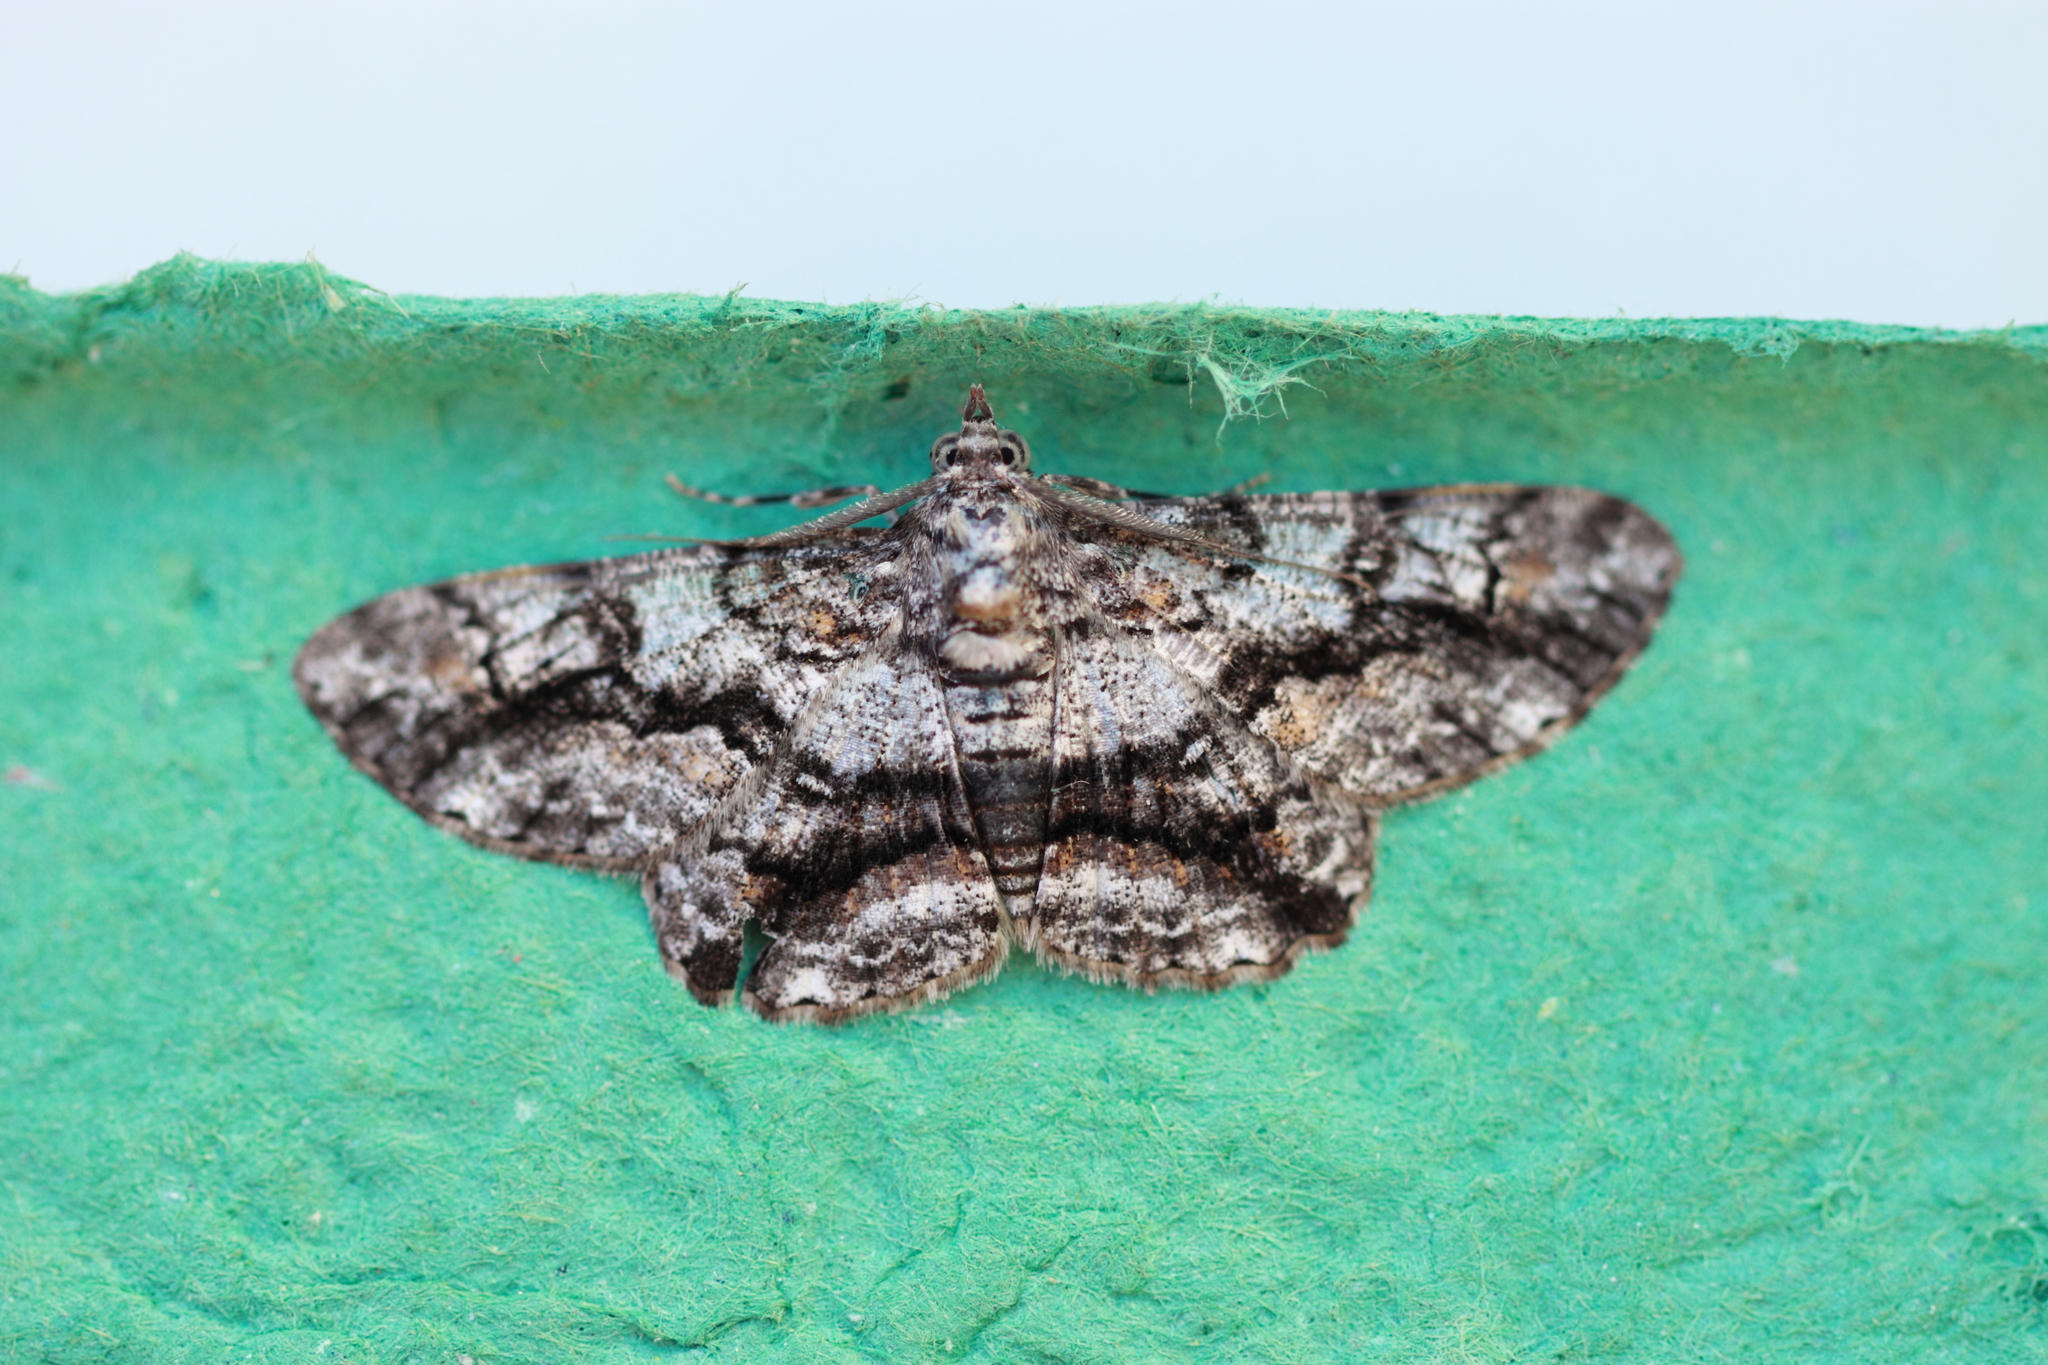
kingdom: Animalia
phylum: Arthropoda
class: Insecta
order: Lepidoptera
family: Geometridae
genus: Cleora
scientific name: Cleora injectaria
